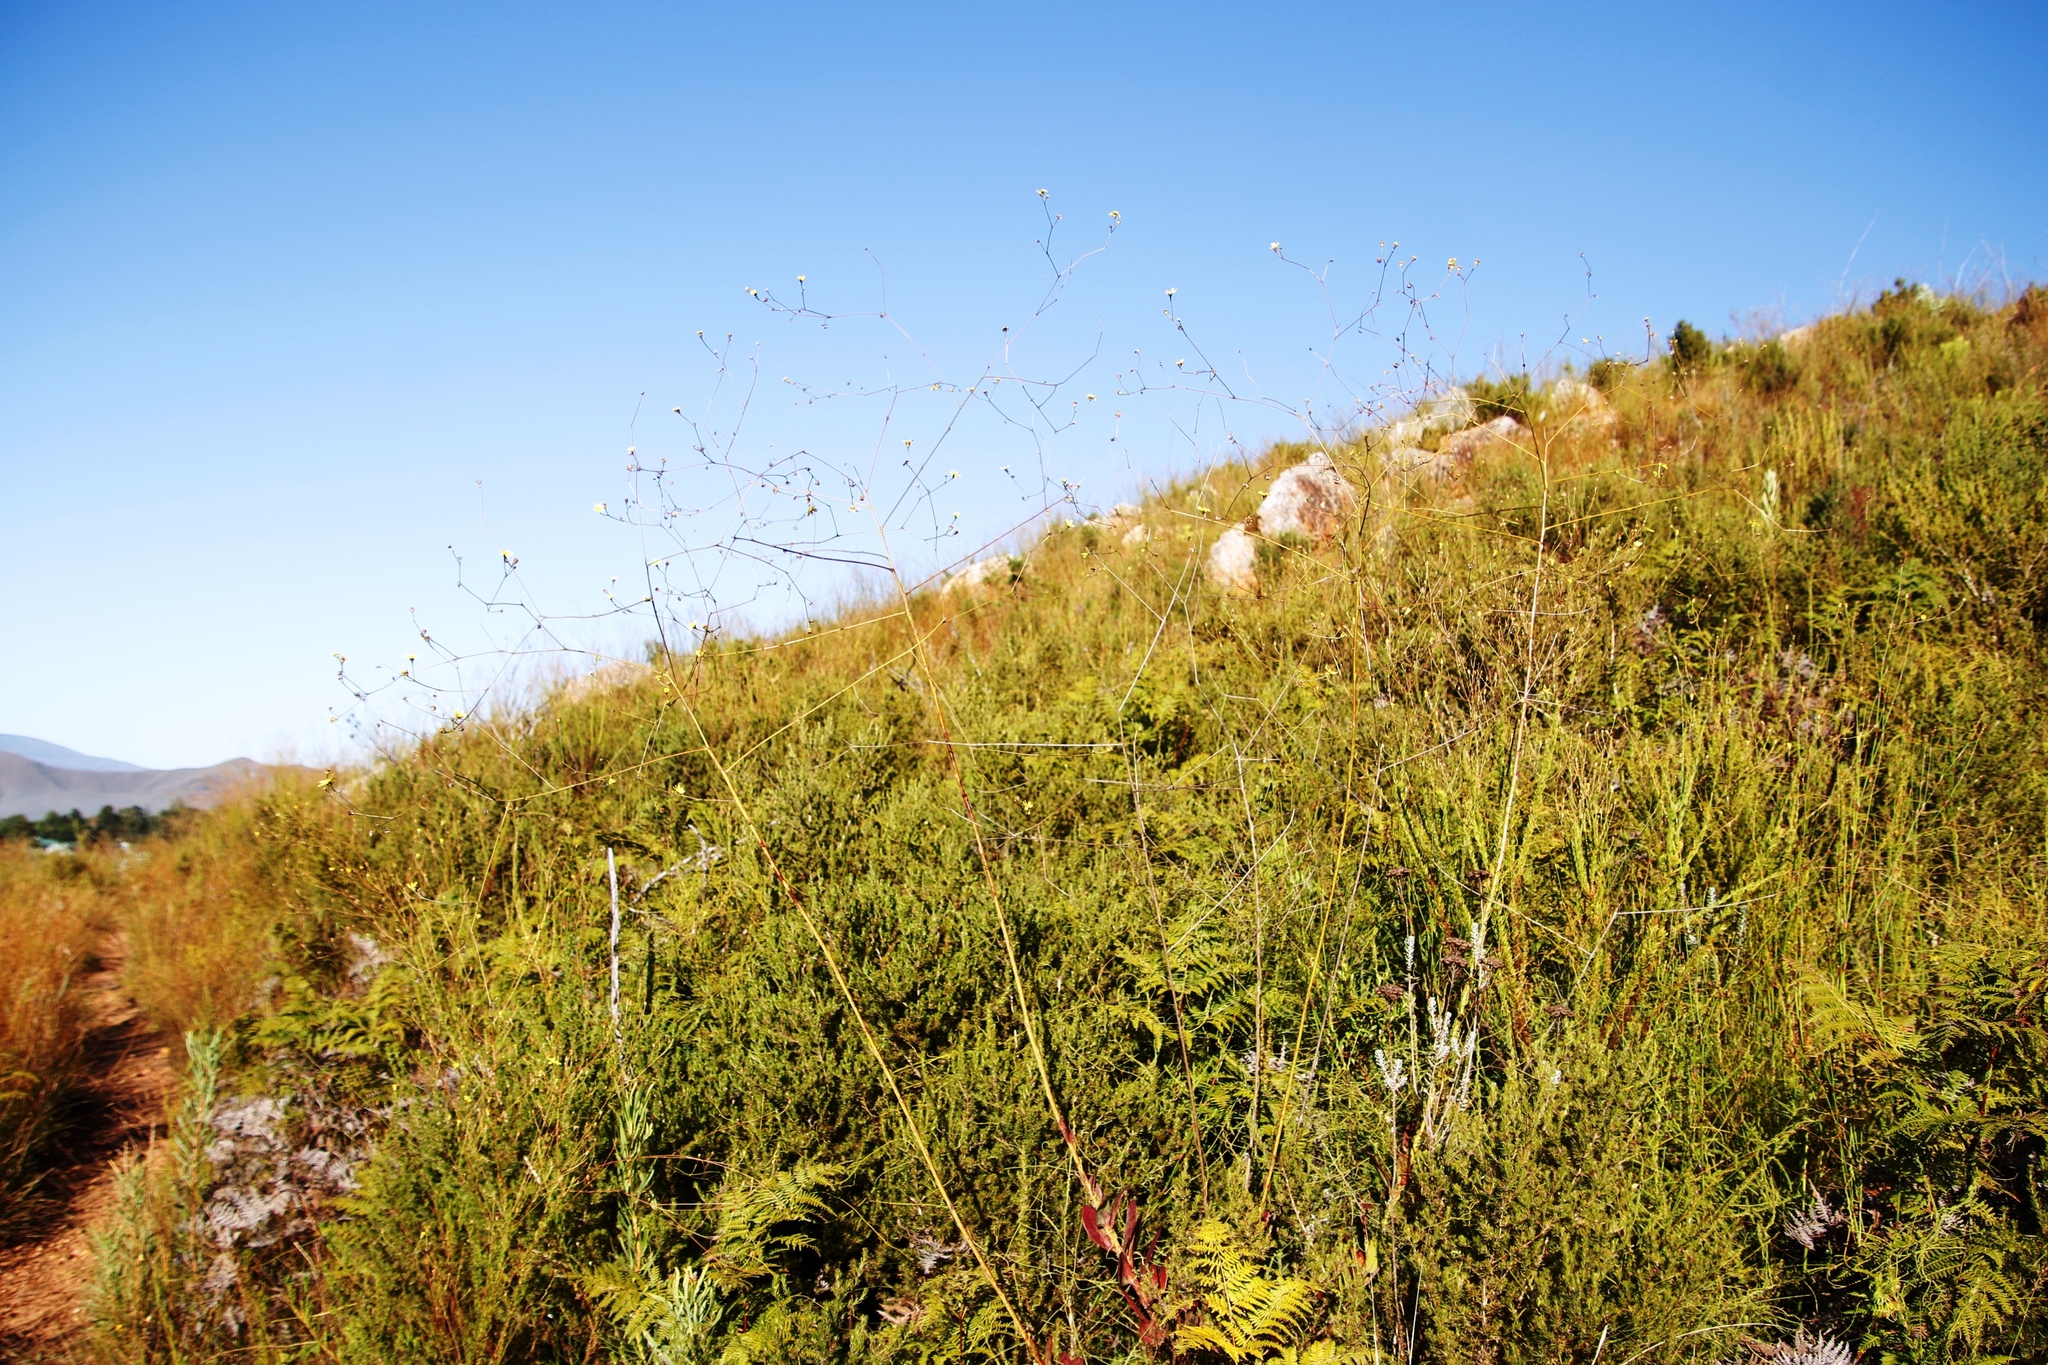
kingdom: Plantae
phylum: Tracheophyta
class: Magnoliopsida
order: Asterales
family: Asteraceae
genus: Othonna
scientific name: Othonna quinquedentata
